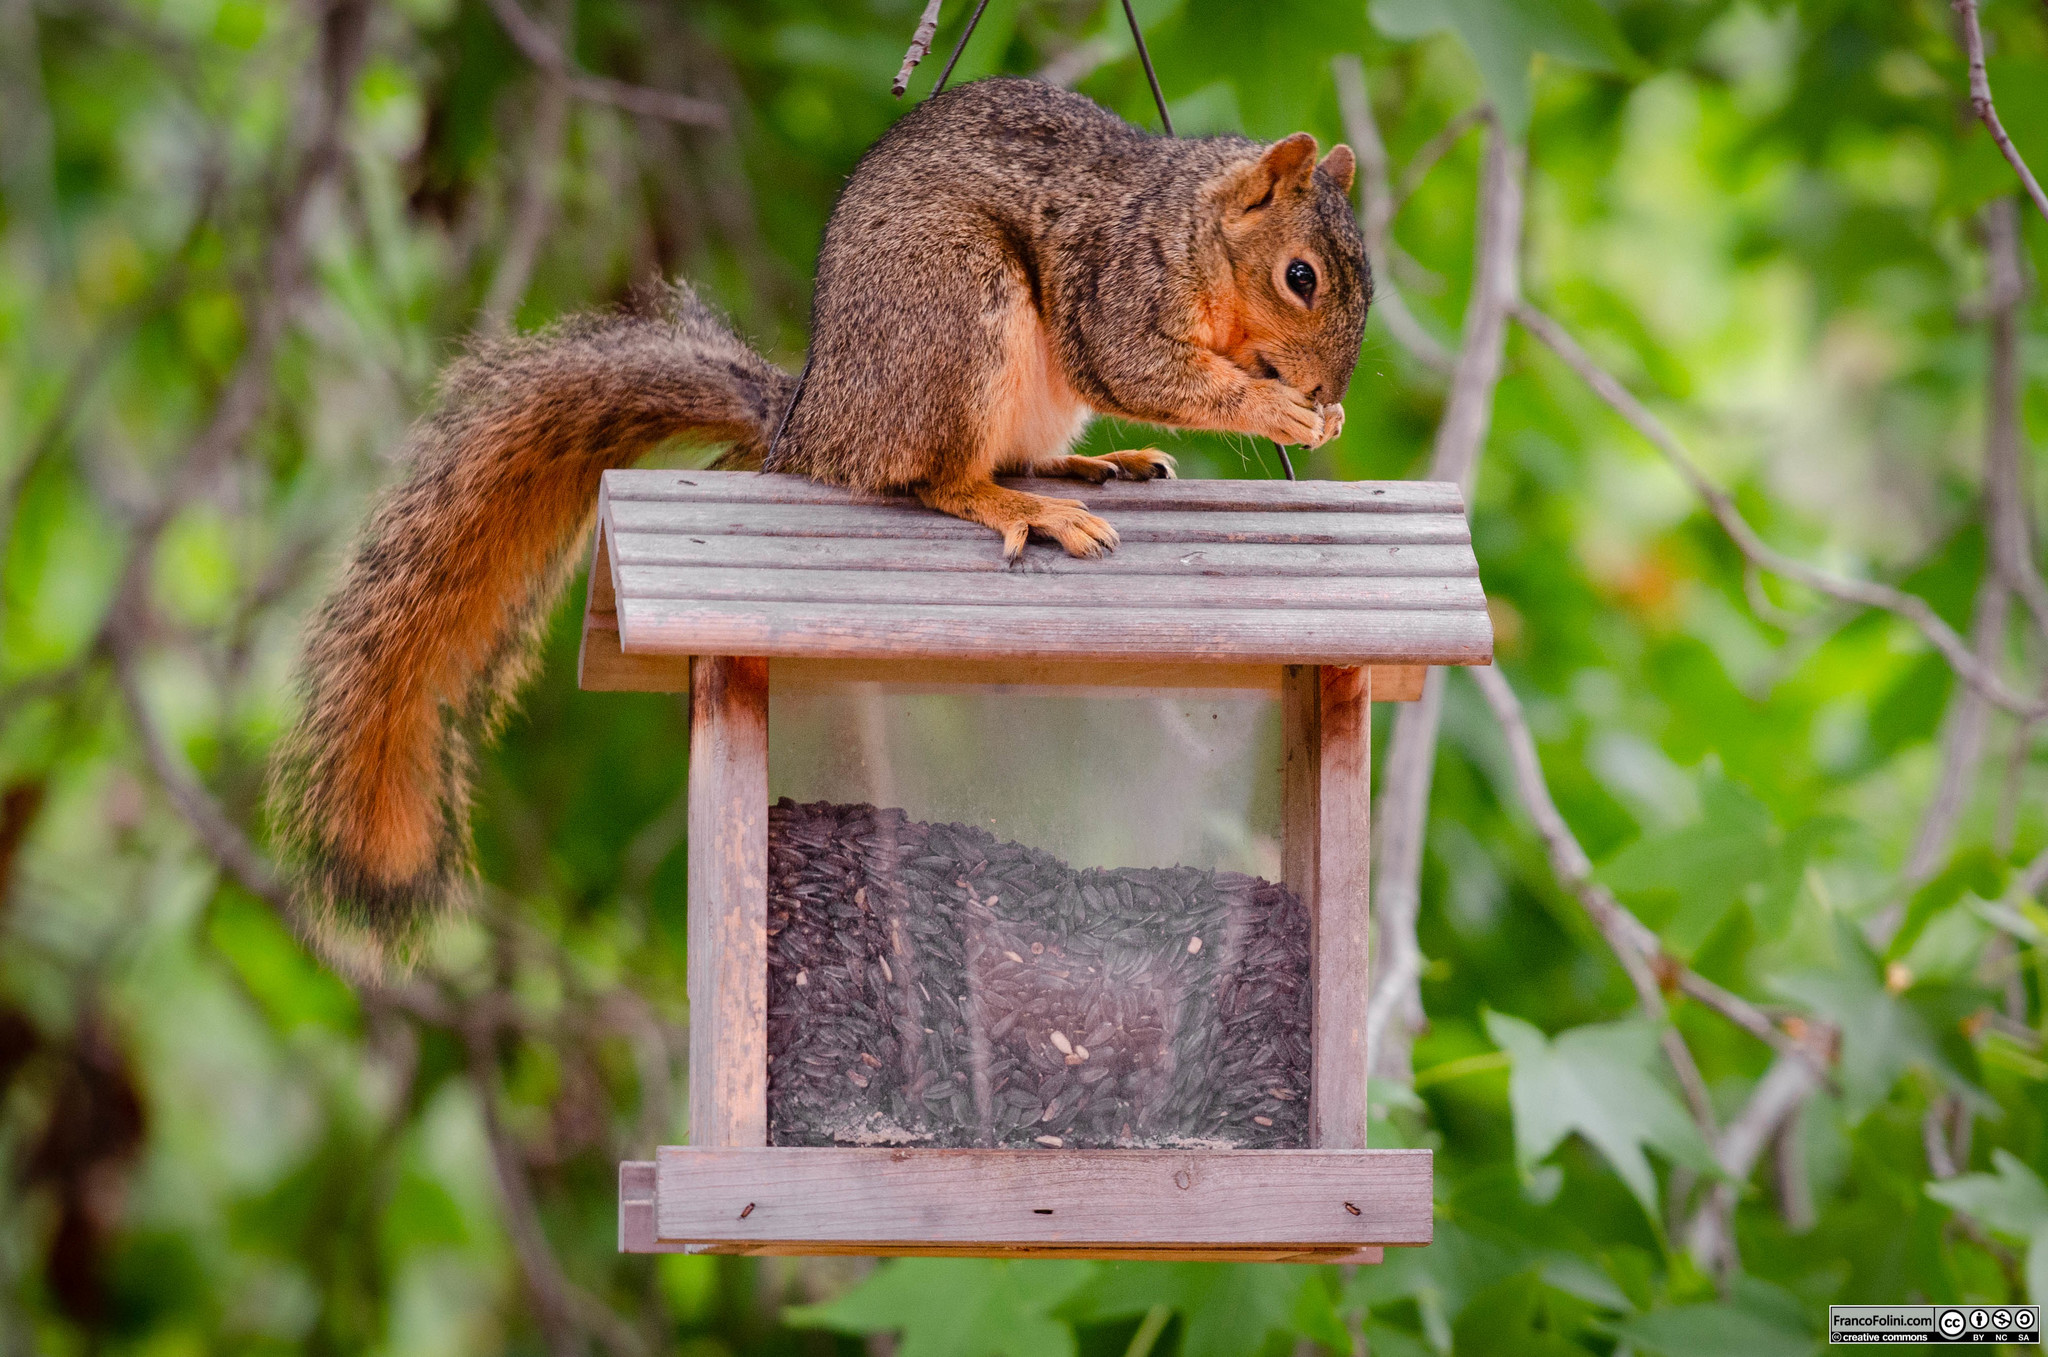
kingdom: Animalia
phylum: Chordata
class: Mammalia
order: Rodentia
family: Sciuridae
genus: Sciurus
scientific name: Sciurus niger
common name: Fox squirrel
